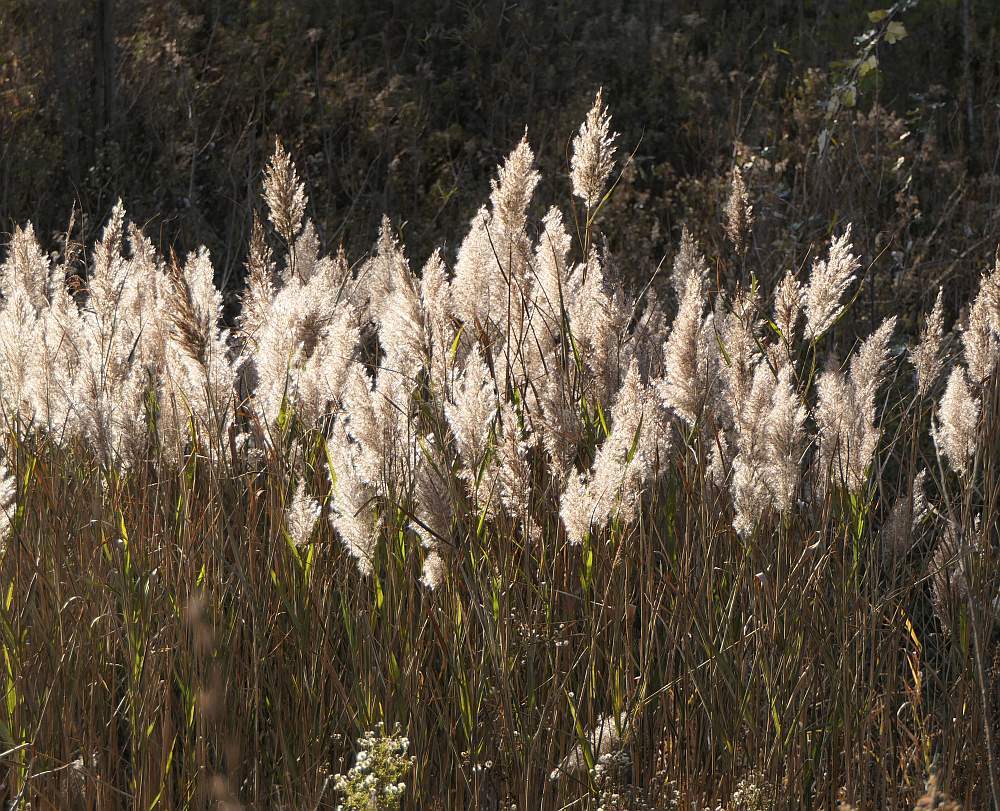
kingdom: Plantae
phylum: Tracheophyta
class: Liliopsida
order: Poales
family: Poaceae
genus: Phragmites
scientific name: Phragmites australis
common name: Common reed
